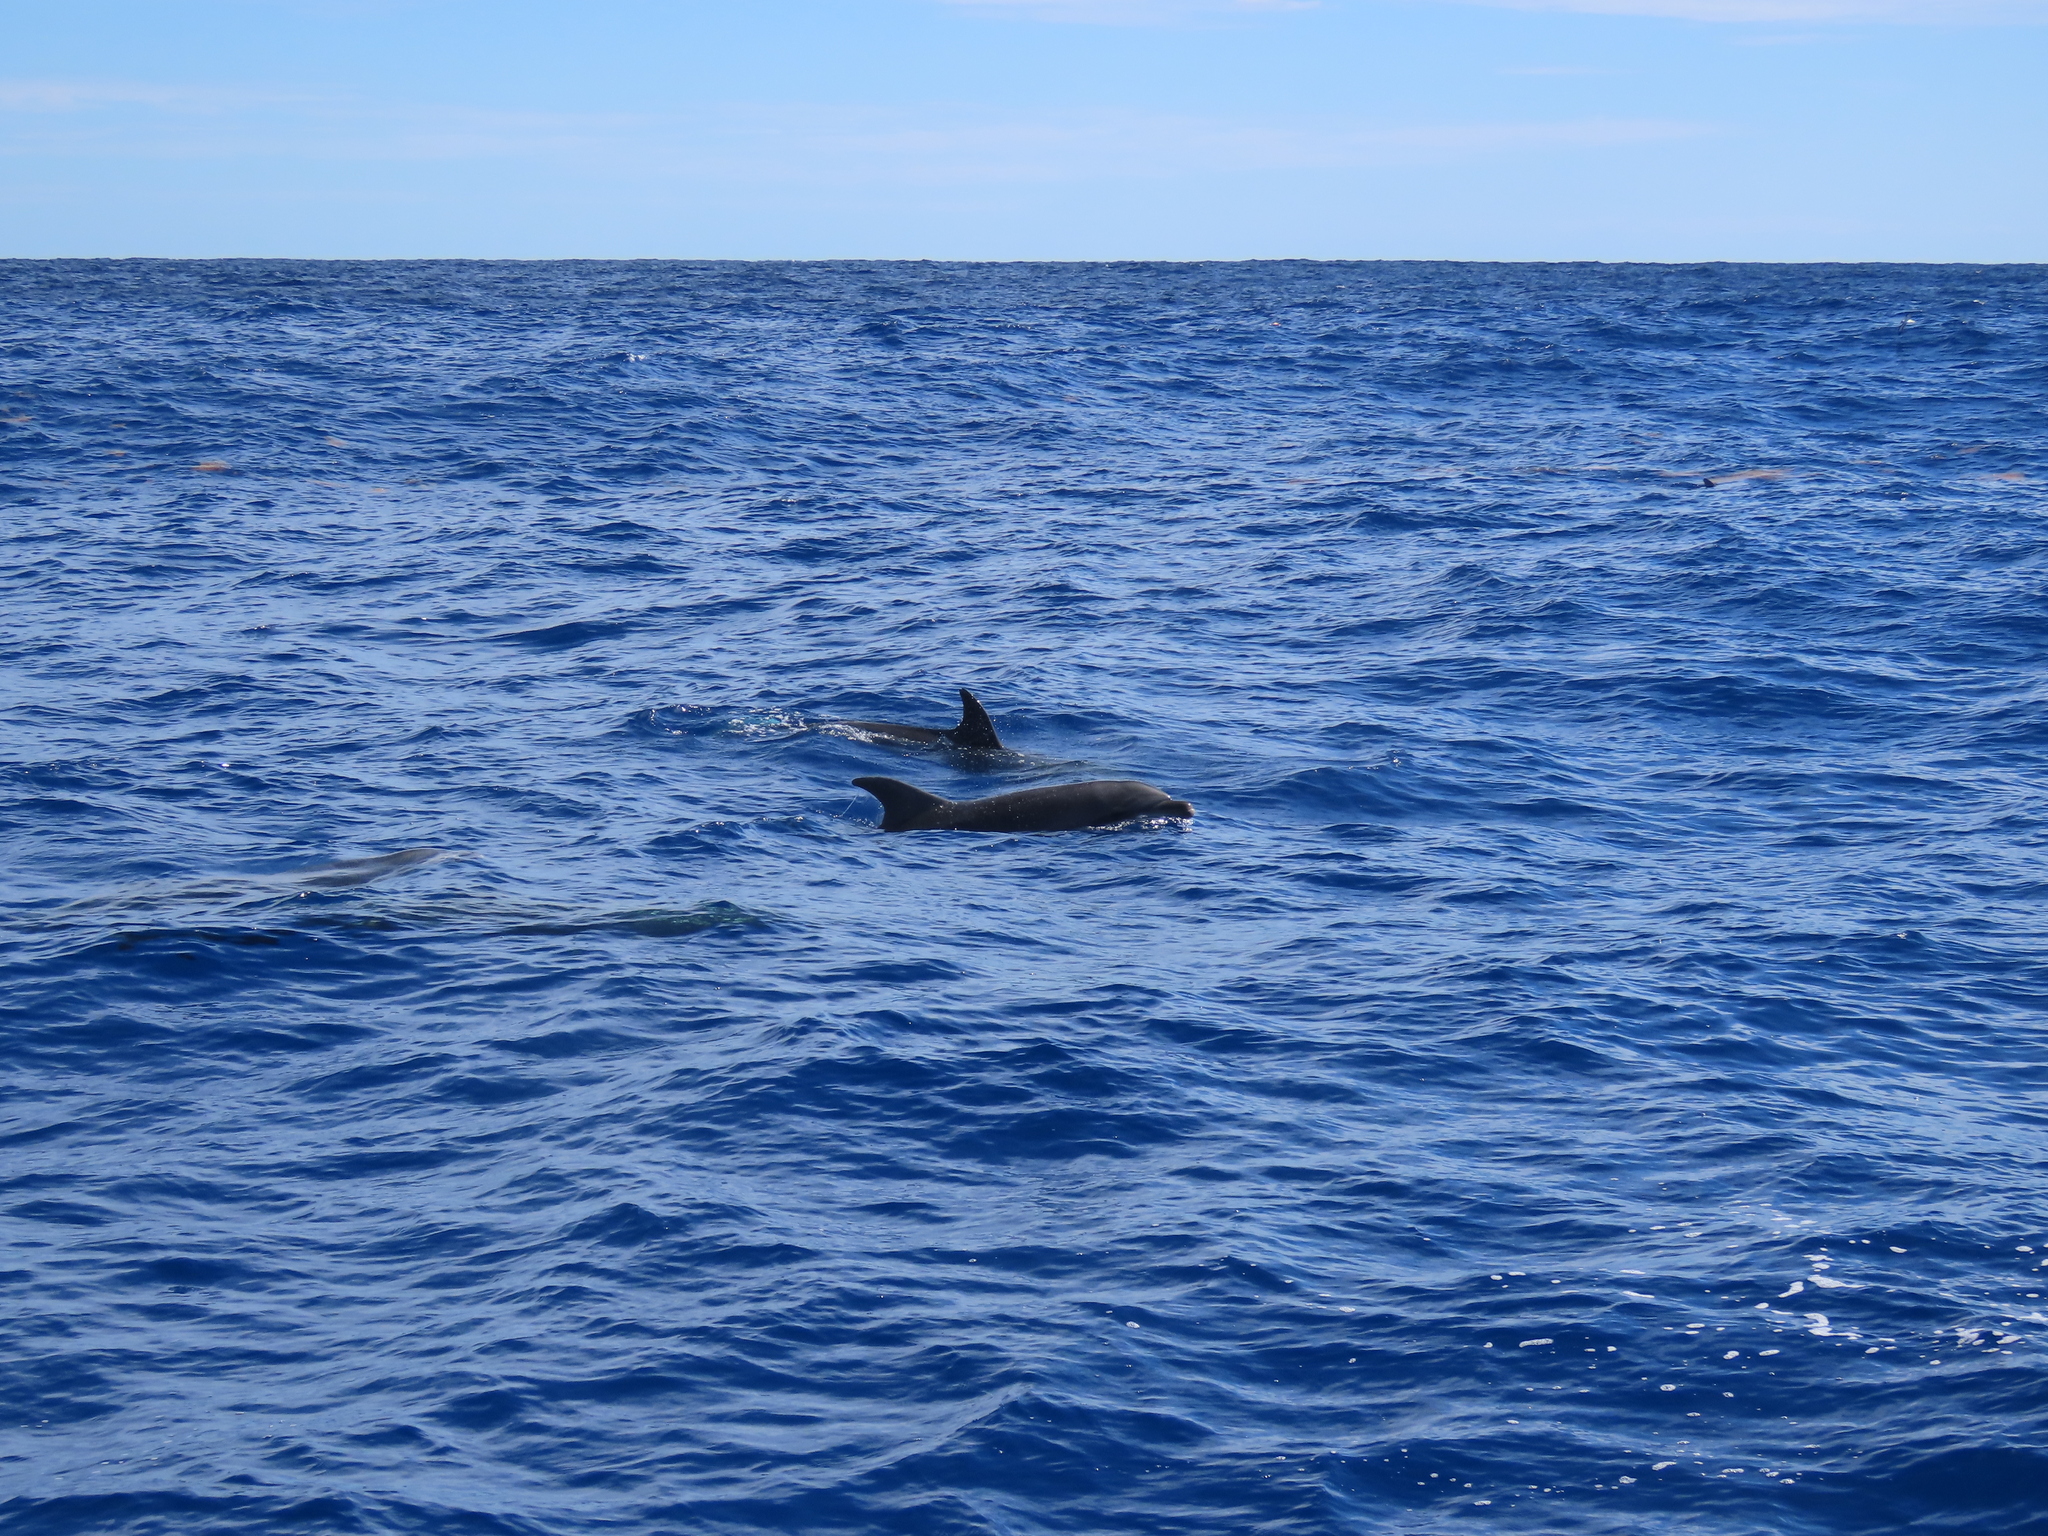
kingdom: Animalia
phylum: Chordata
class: Mammalia
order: Cetacea
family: Delphinidae
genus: Tursiops
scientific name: Tursiops truncatus
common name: Bottlenose dolphin
